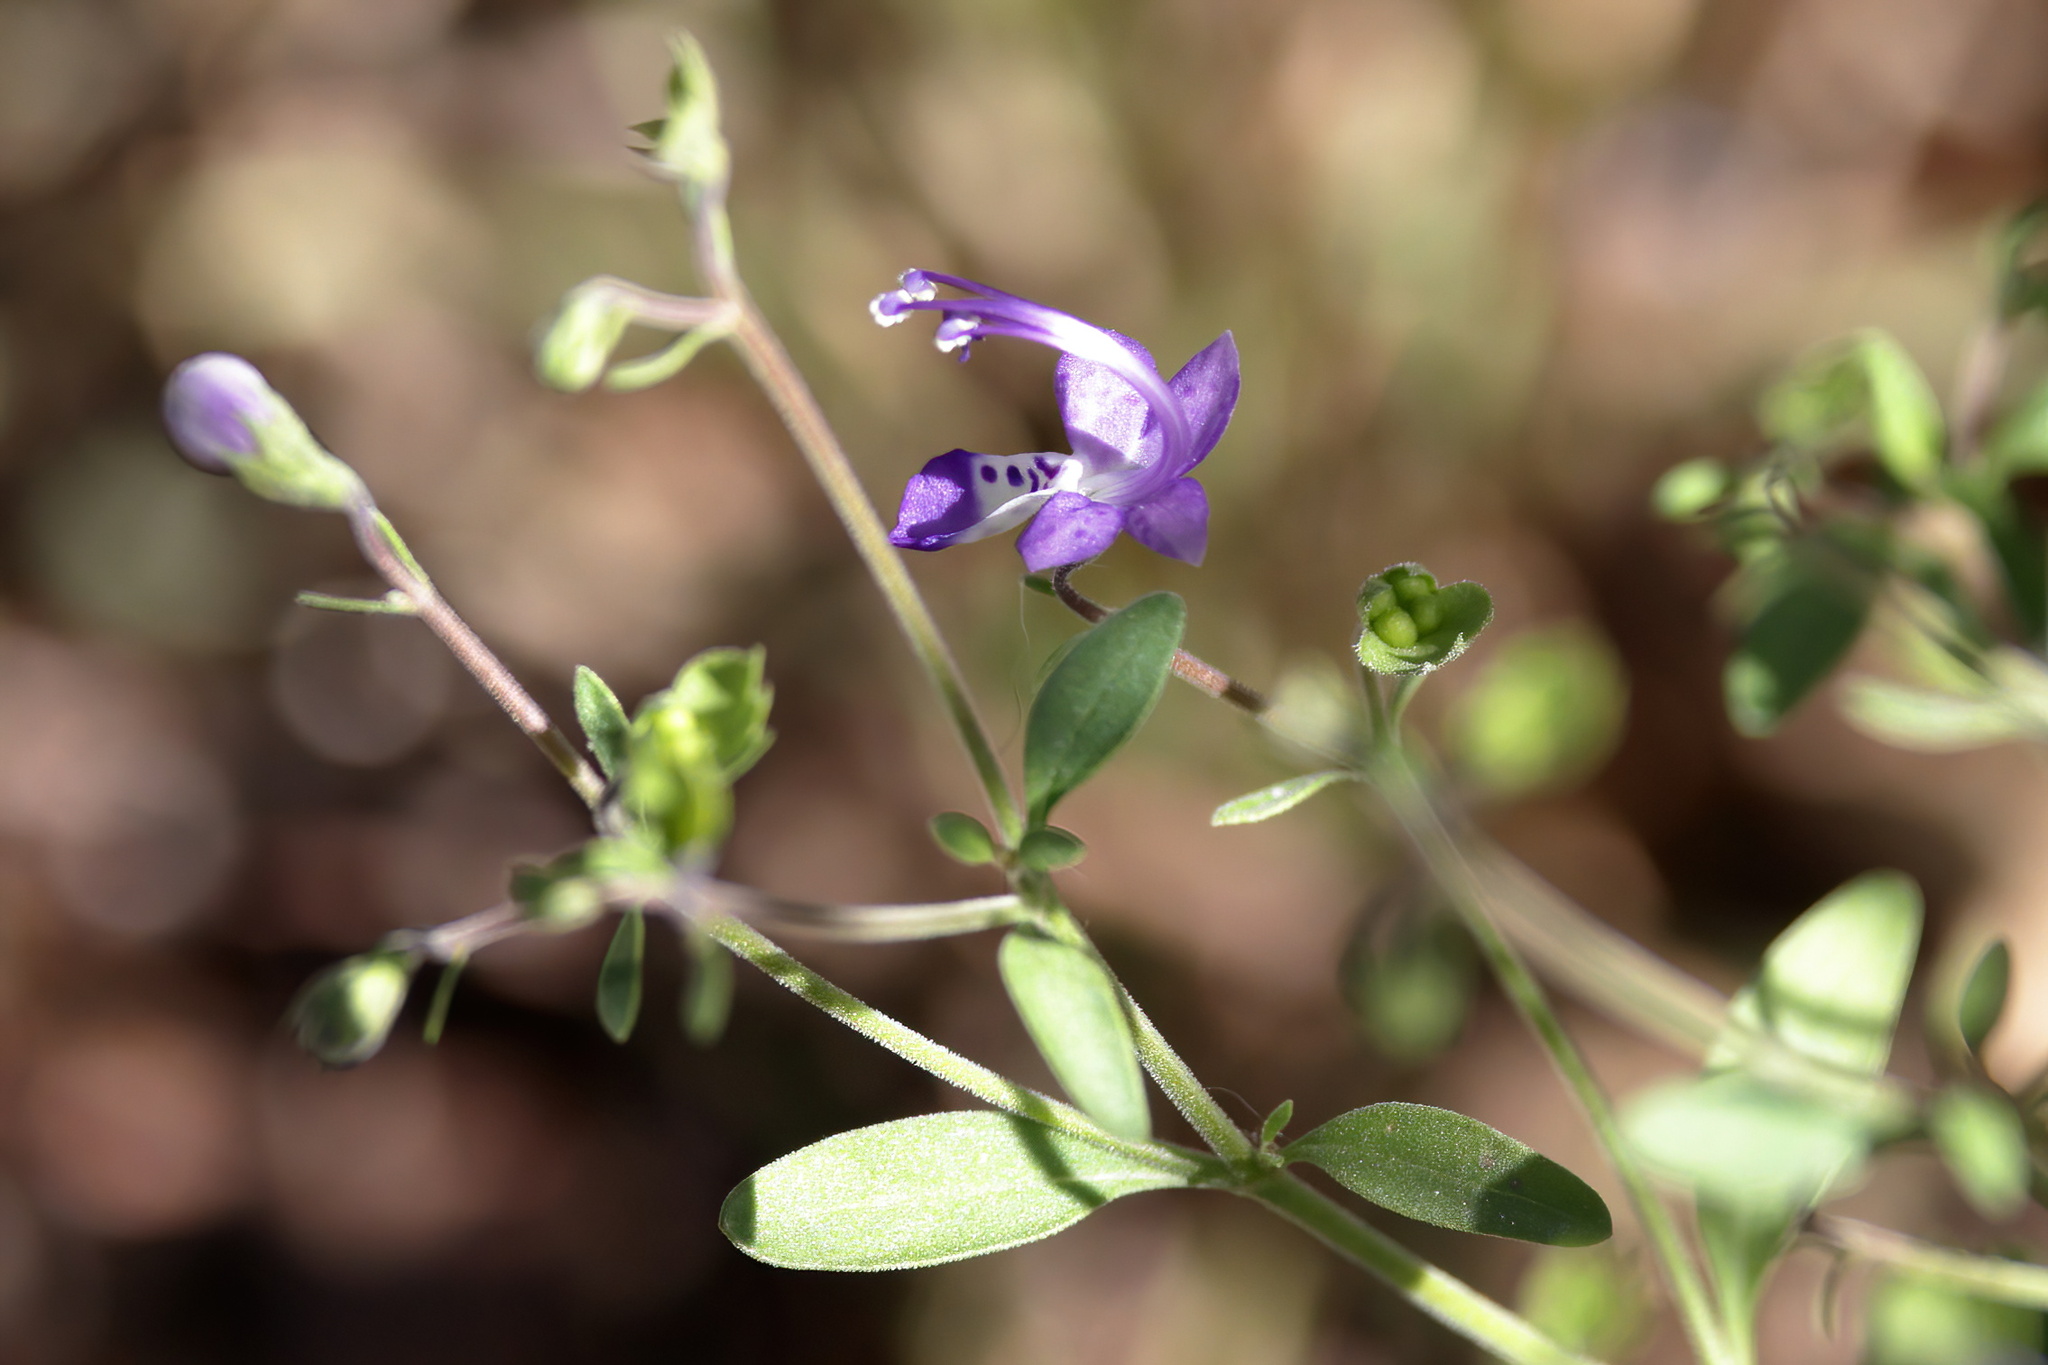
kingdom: Plantae
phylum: Tracheophyta
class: Magnoliopsida
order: Lamiales
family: Lamiaceae
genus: Trichostema
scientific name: Trichostema fruticosum
